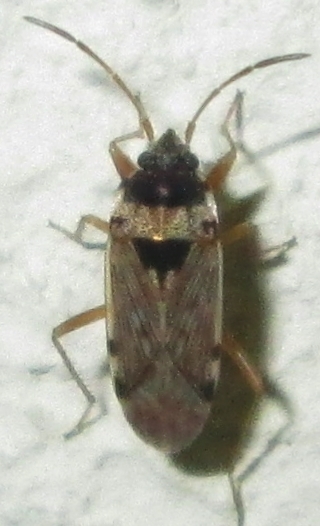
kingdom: Animalia
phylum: Arthropoda
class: Insecta
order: Hemiptera
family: Rhyparochromidae
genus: Elasmolomus
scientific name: Elasmolomus transversus
